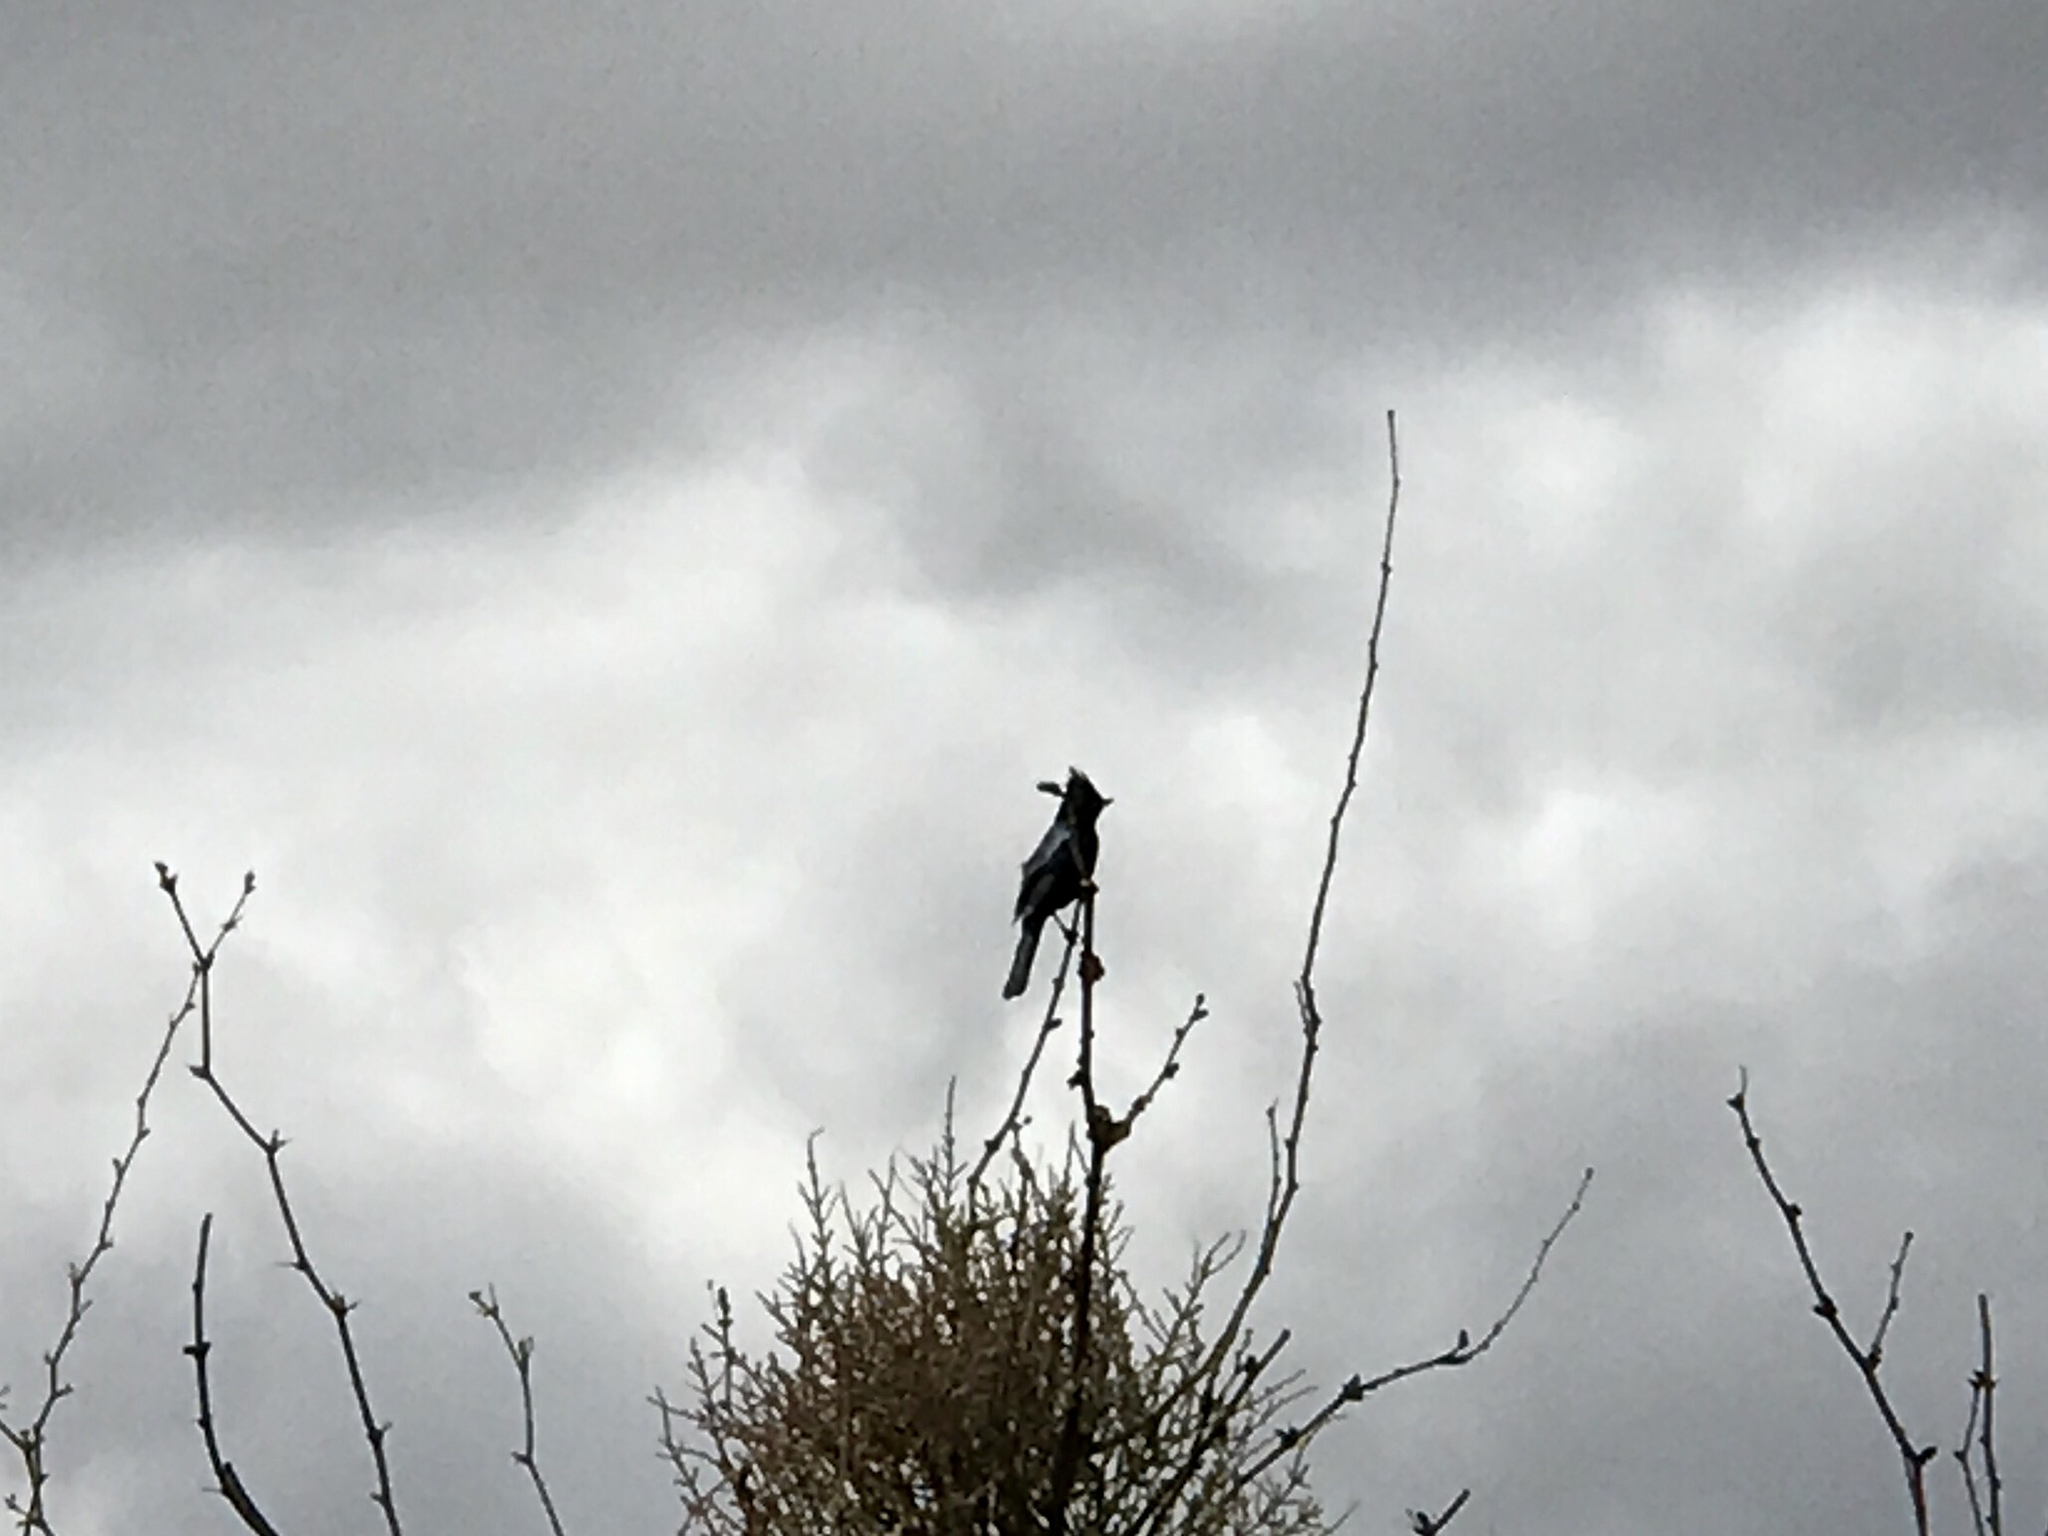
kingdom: Animalia
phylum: Chordata
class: Aves
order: Passeriformes
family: Ptilogonatidae
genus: Phainopepla
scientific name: Phainopepla nitens
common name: Phainopepla
